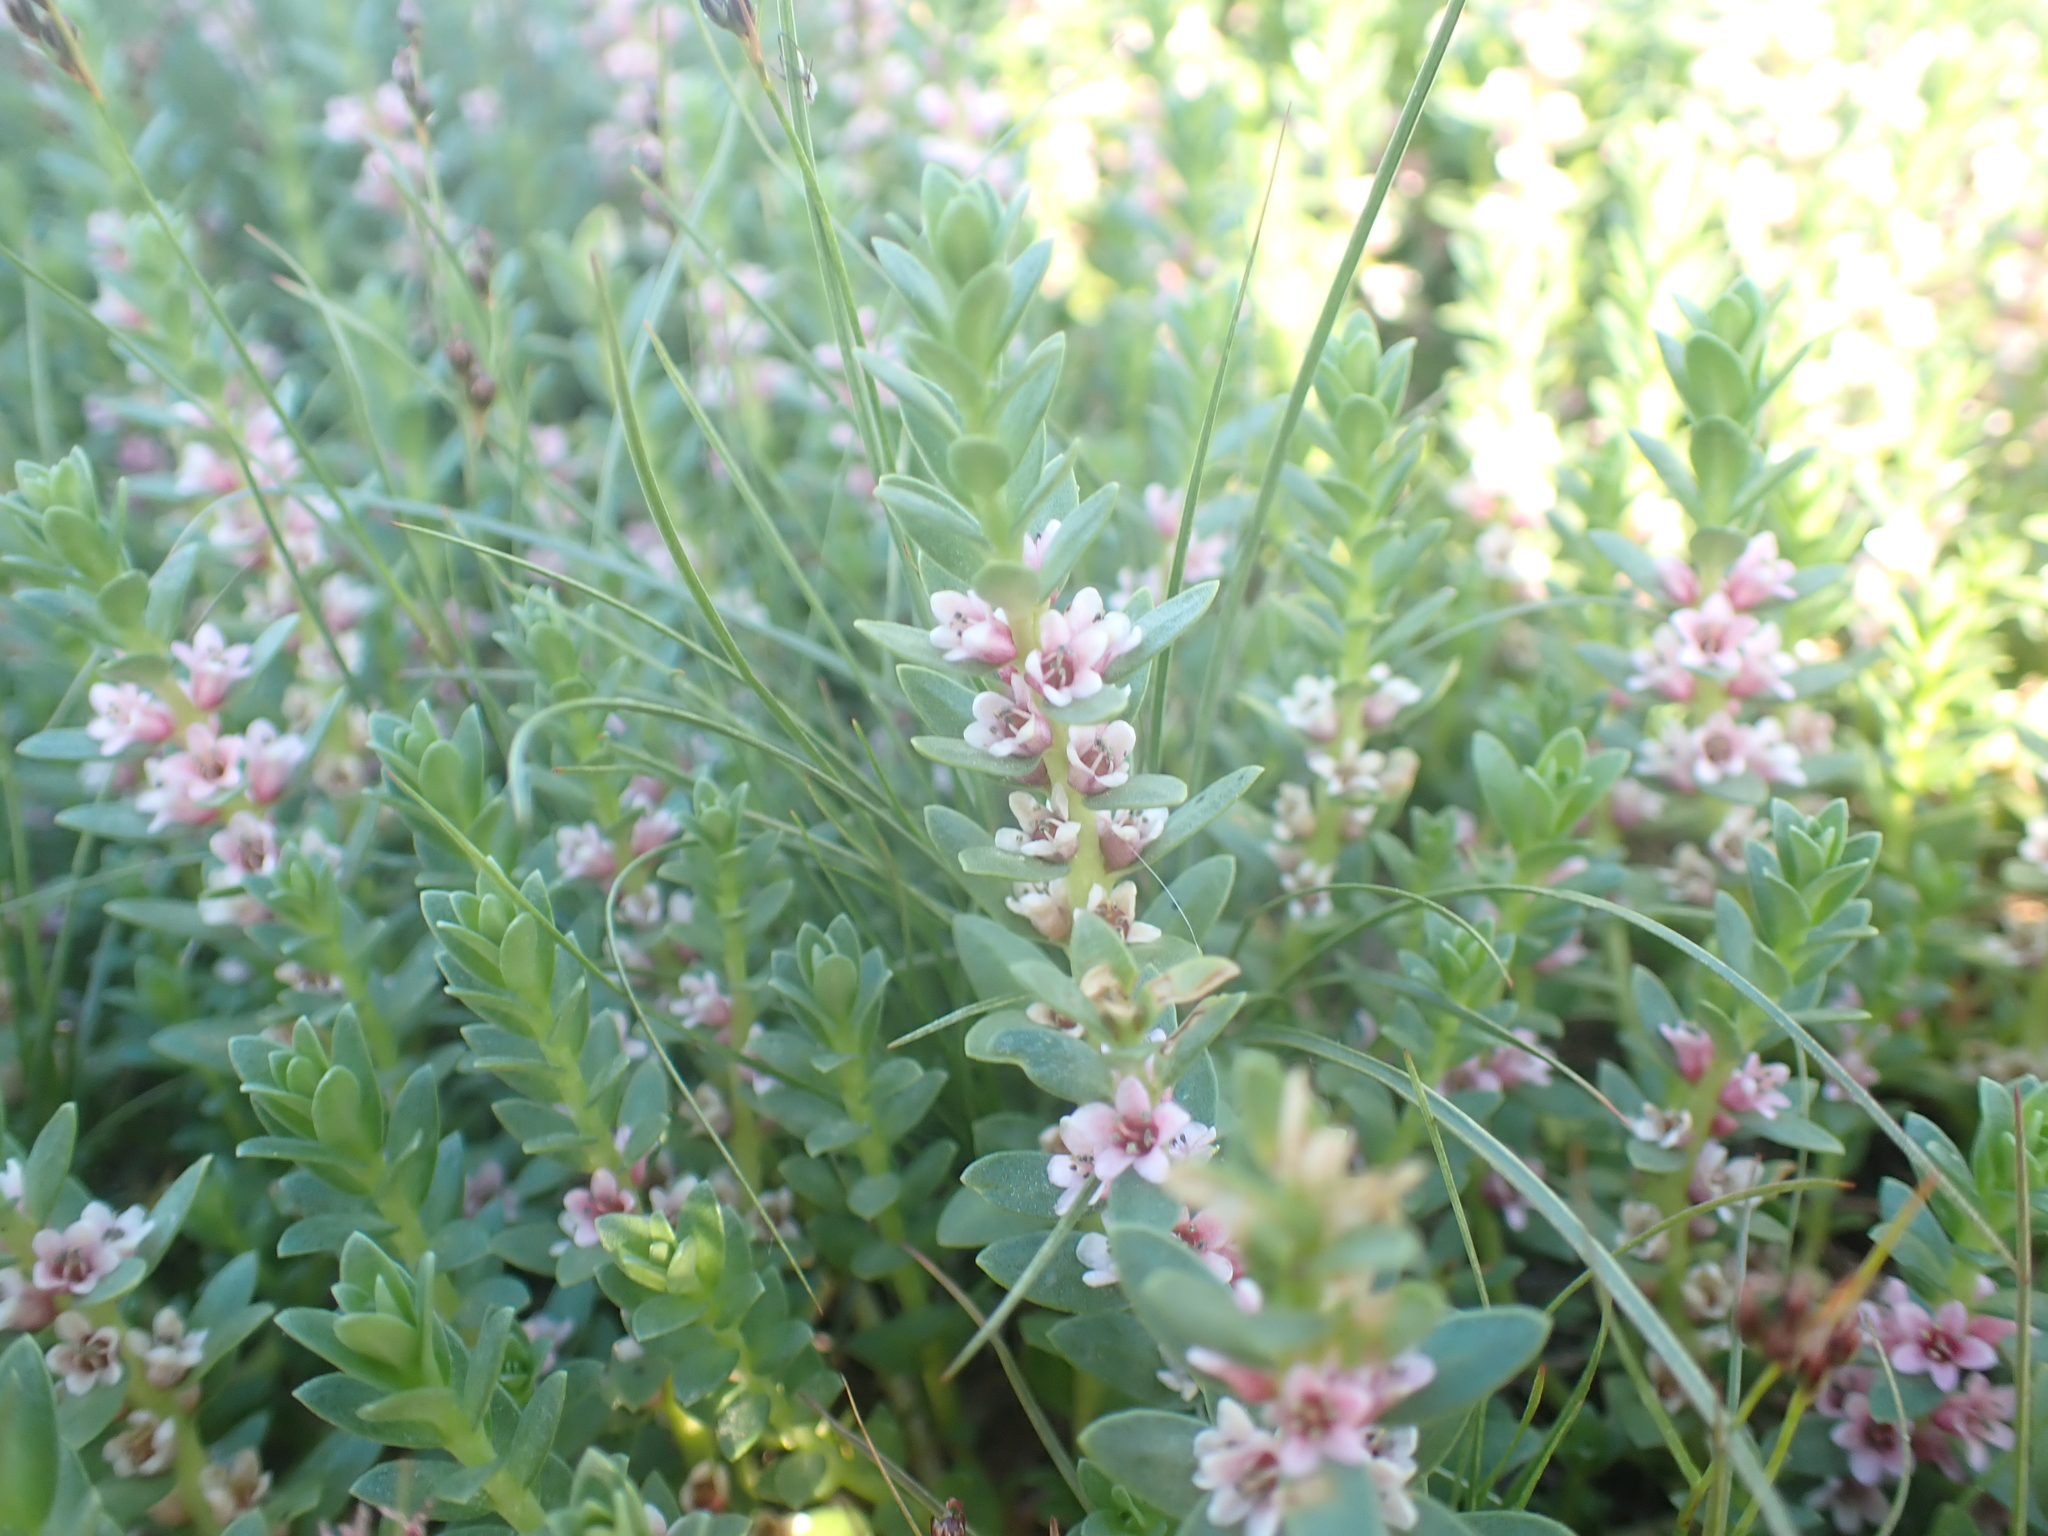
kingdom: Plantae
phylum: Tracheophyta
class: Magnoliopsida
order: Ericales
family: Primulaceae
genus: Lysimachia
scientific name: Lysimachia maritima
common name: Sea milkwort
